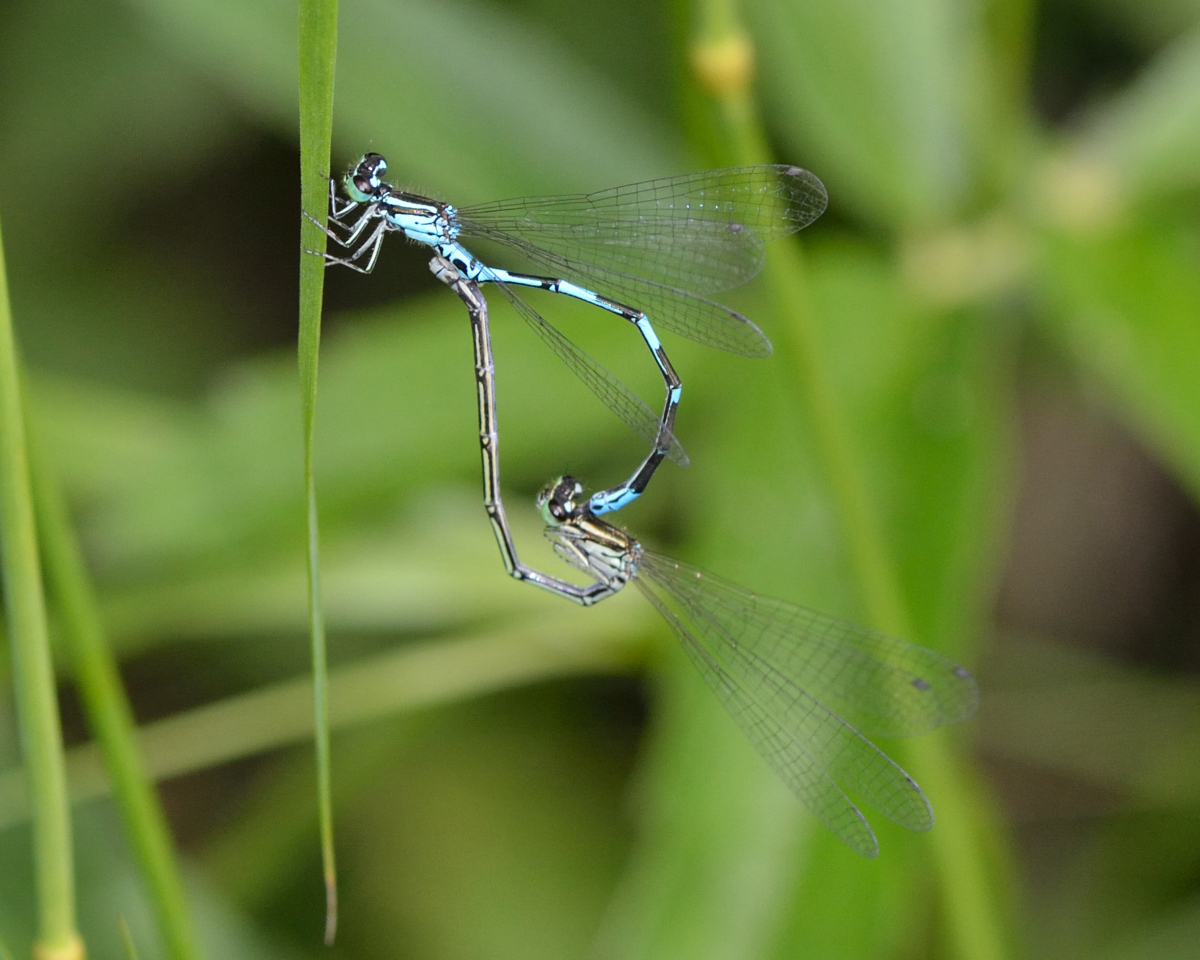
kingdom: Animalia
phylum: Arthropoda
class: Insecta
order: Odonata
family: Coenagrionidae
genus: Coenagrion
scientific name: Coenagrion johanssoni
